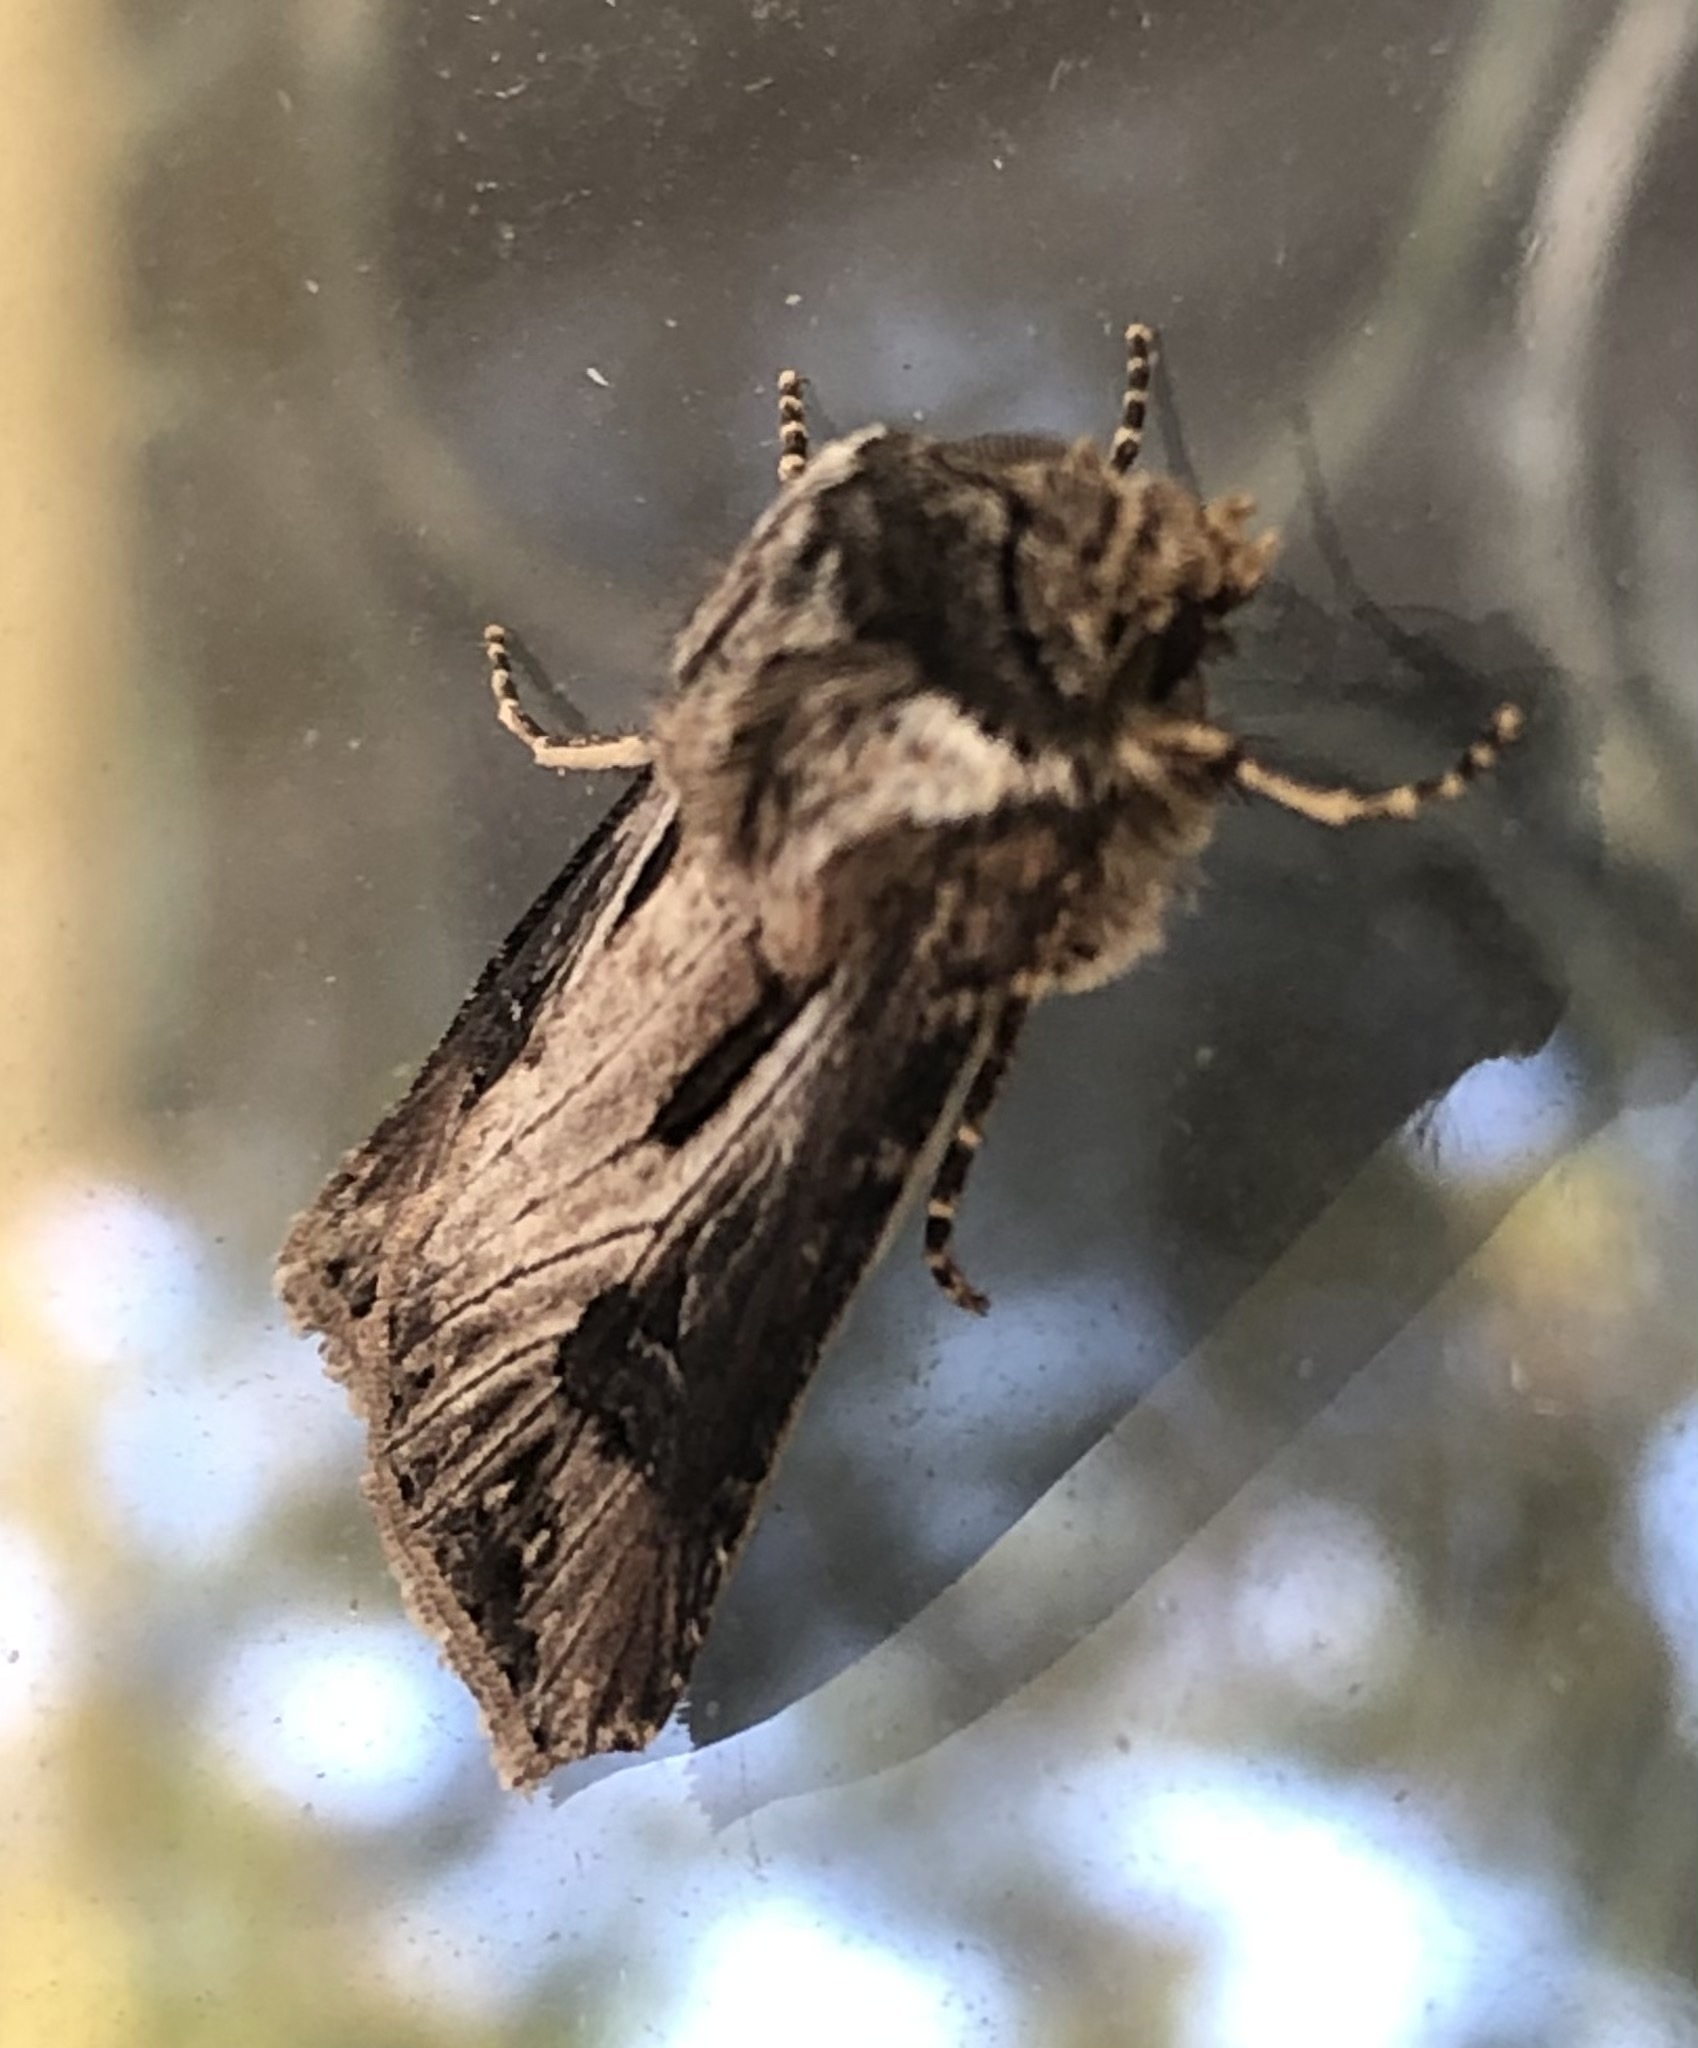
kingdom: Animalia
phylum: Arthropoda
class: Insecta
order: Lepidoptera
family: Noctuidae
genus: Agrotis
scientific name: Agrotis venerabilis
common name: Venerable dart
